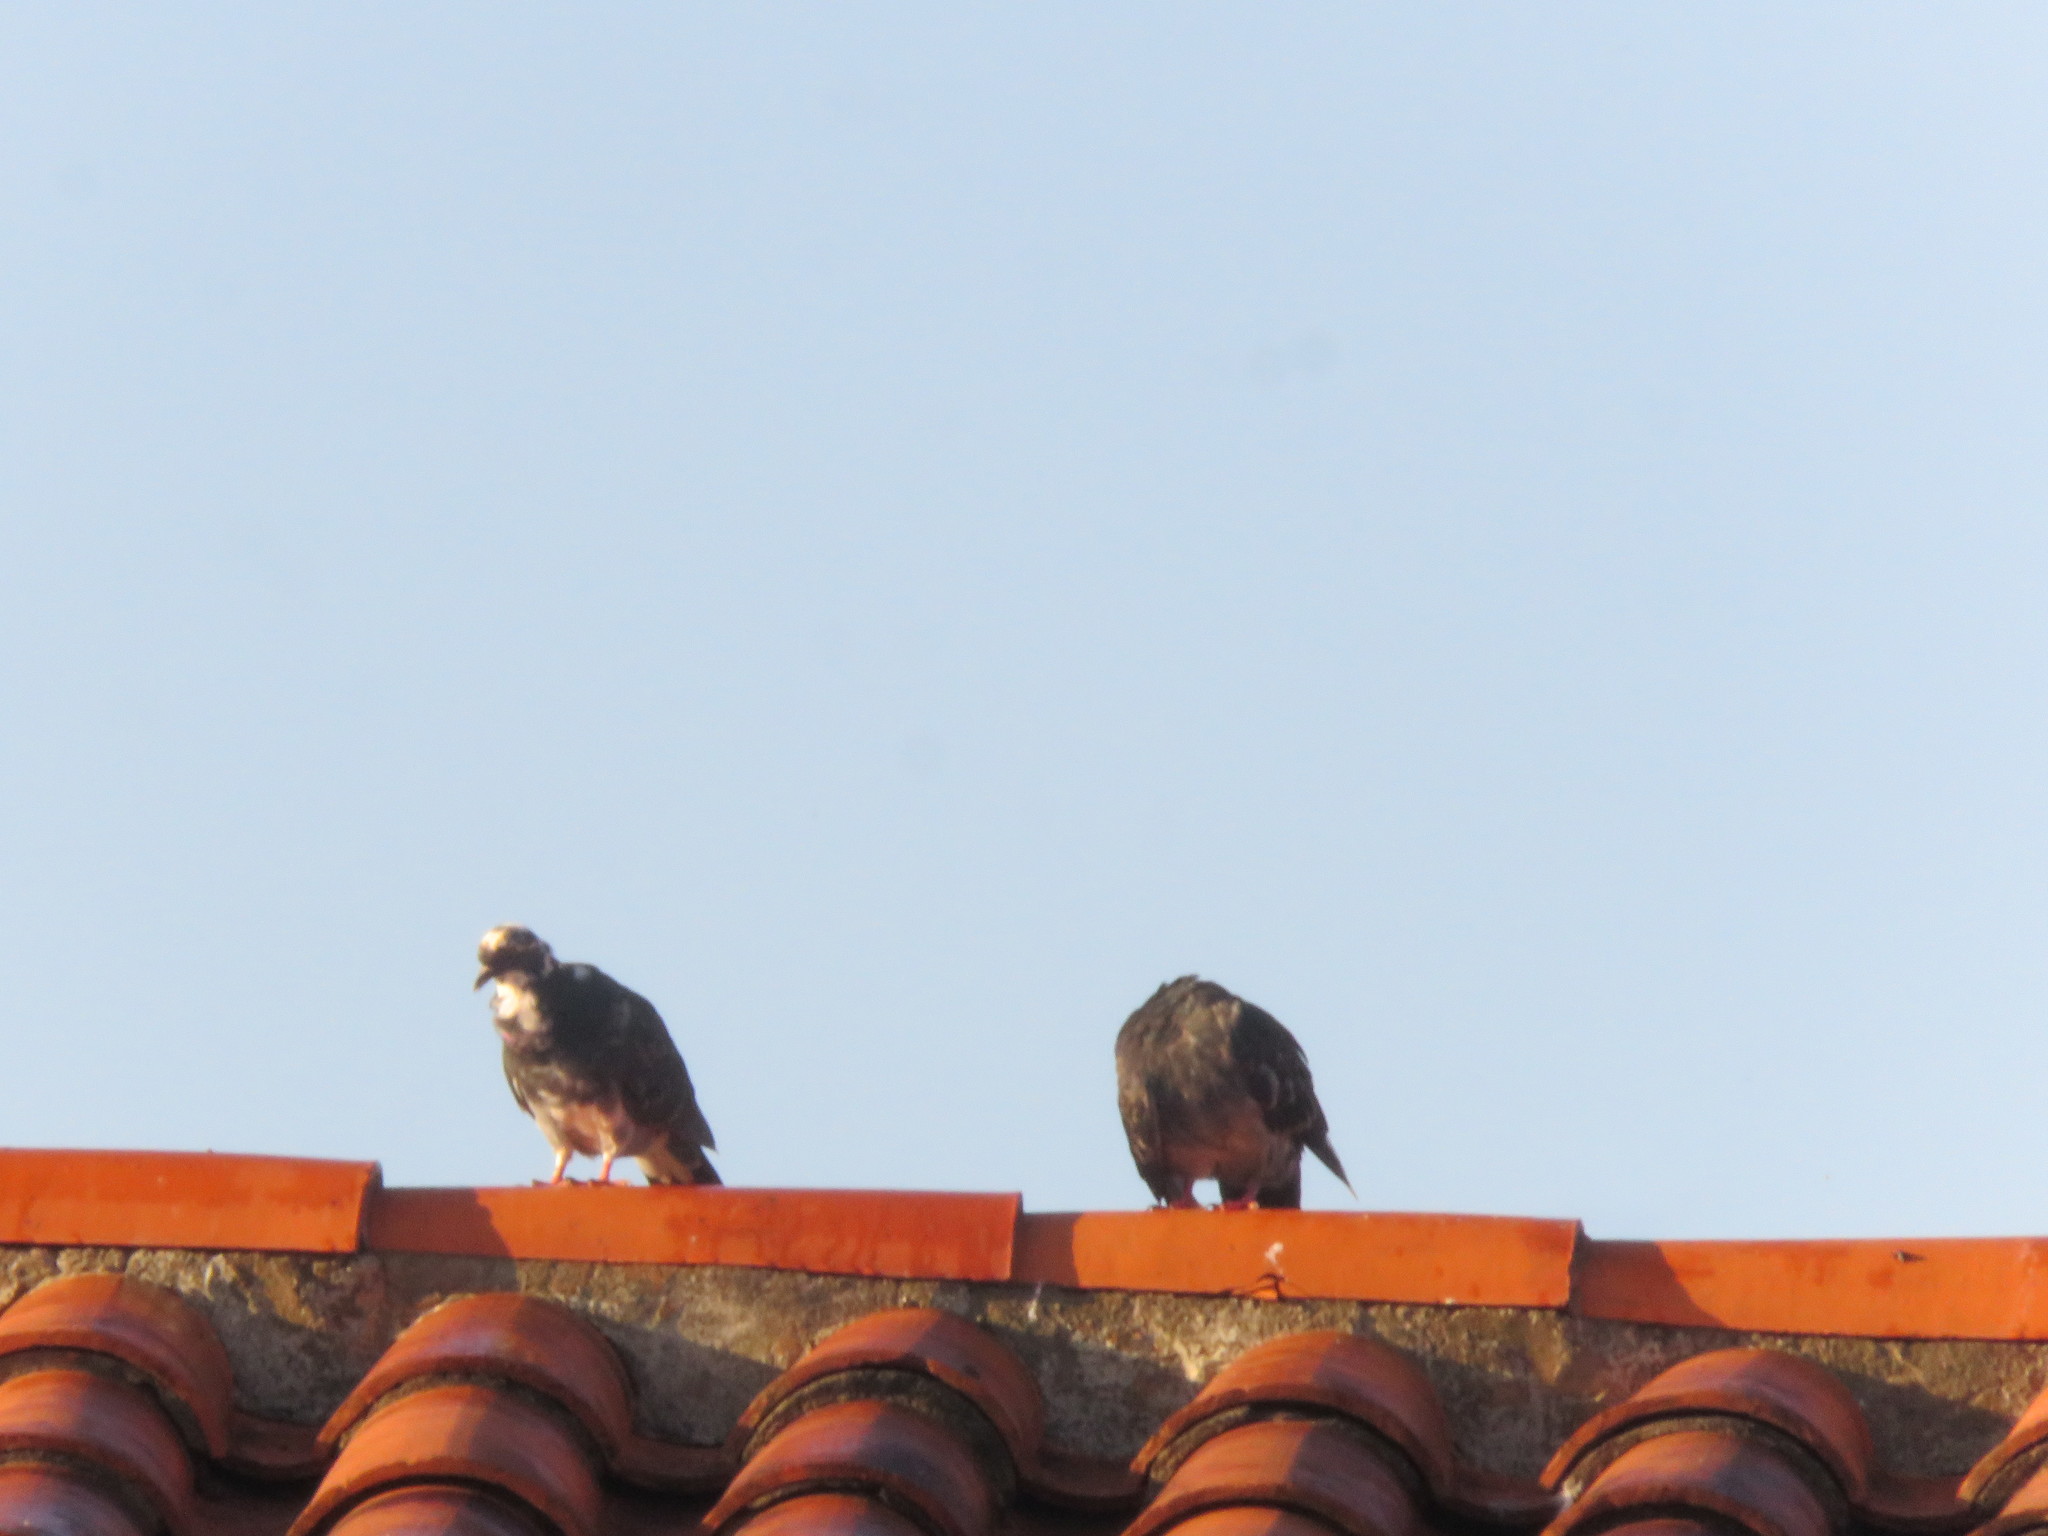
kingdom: Animalia
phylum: Chordata
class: Aves
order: Columbiformes
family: Columbidae
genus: Columba
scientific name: Columba livia
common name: Rock pigeon
